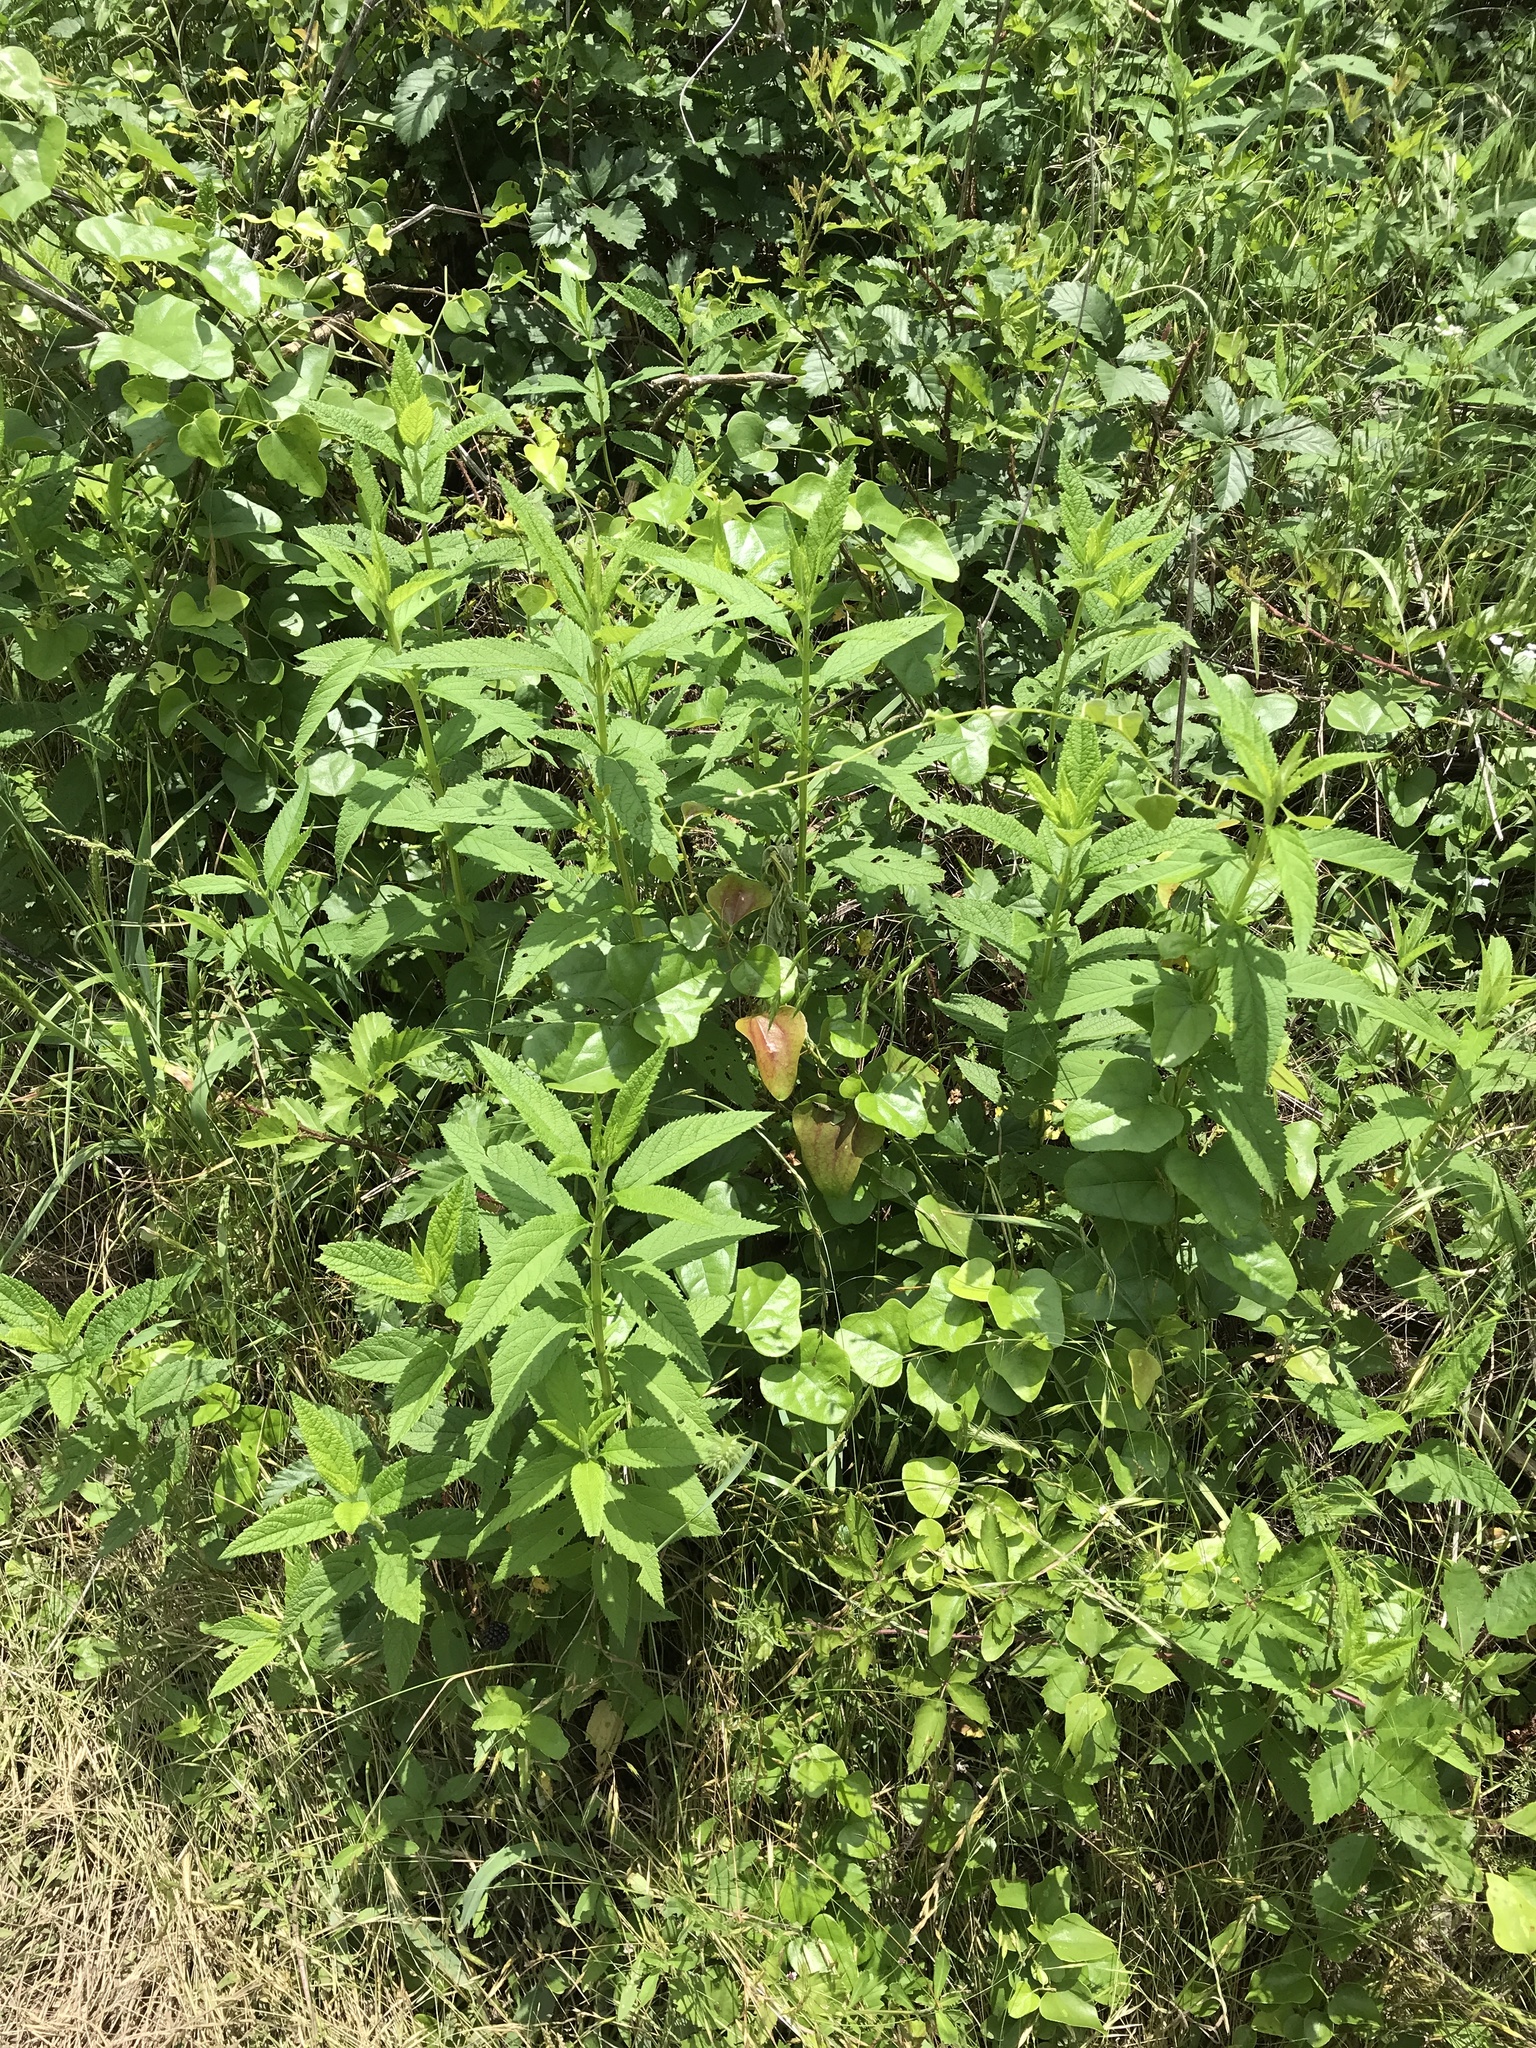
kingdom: Plantae
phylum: Tracheophyta
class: Magnoliopsida
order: Lamiales
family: Lamiaceae
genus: Teucrium
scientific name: Teucrium canadense
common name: American germander
